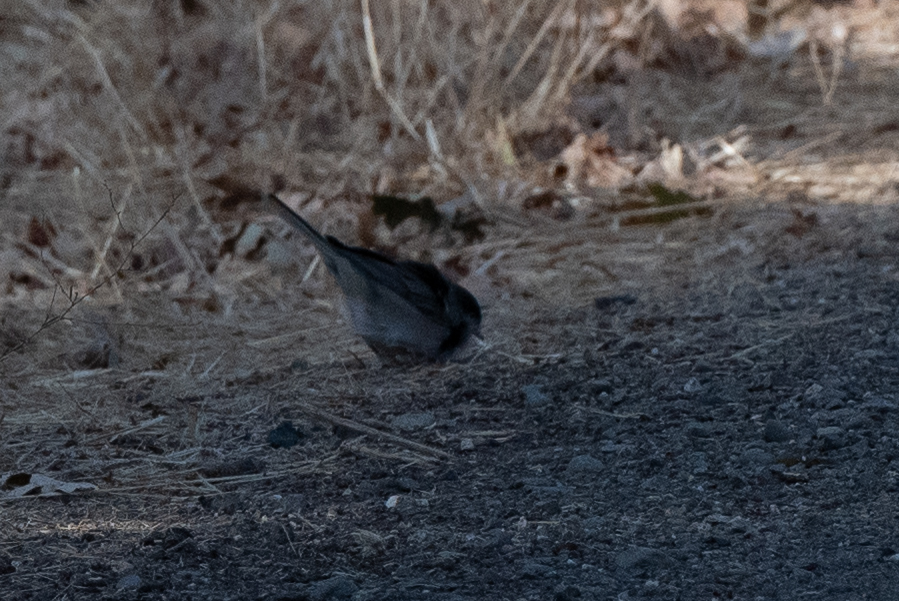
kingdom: Animalia
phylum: Chordata
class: Aves
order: Passeriformes
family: Passerellidae
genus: Junco
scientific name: Junco hyemalis
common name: Dark-eyed junco
